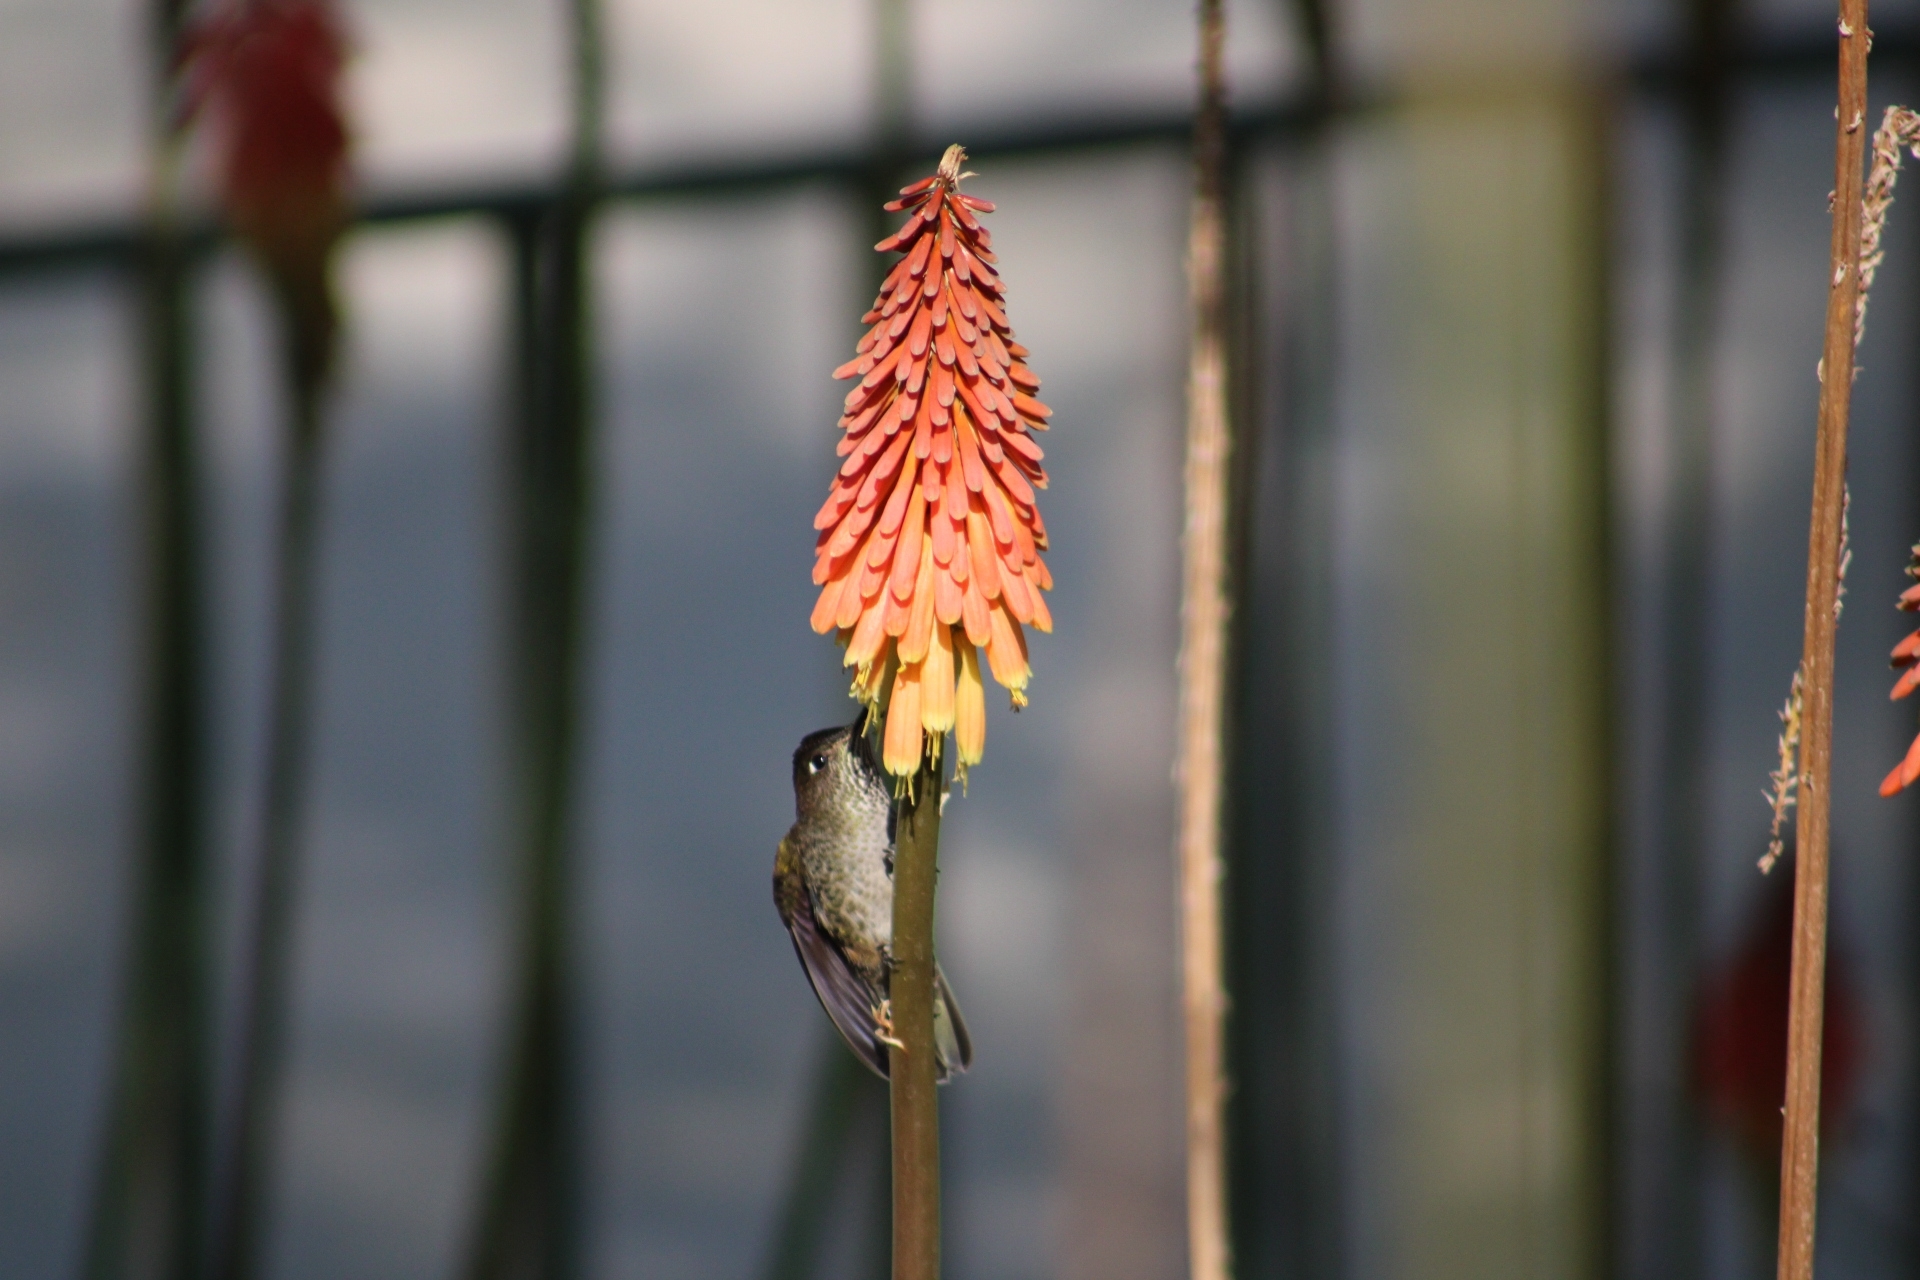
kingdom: Animalia
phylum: Chordata
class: Aves
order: Apodiformes
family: Trochilidae
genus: Sephanoides
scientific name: Sephanoides sephaniodes
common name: Green-backed firecrown
